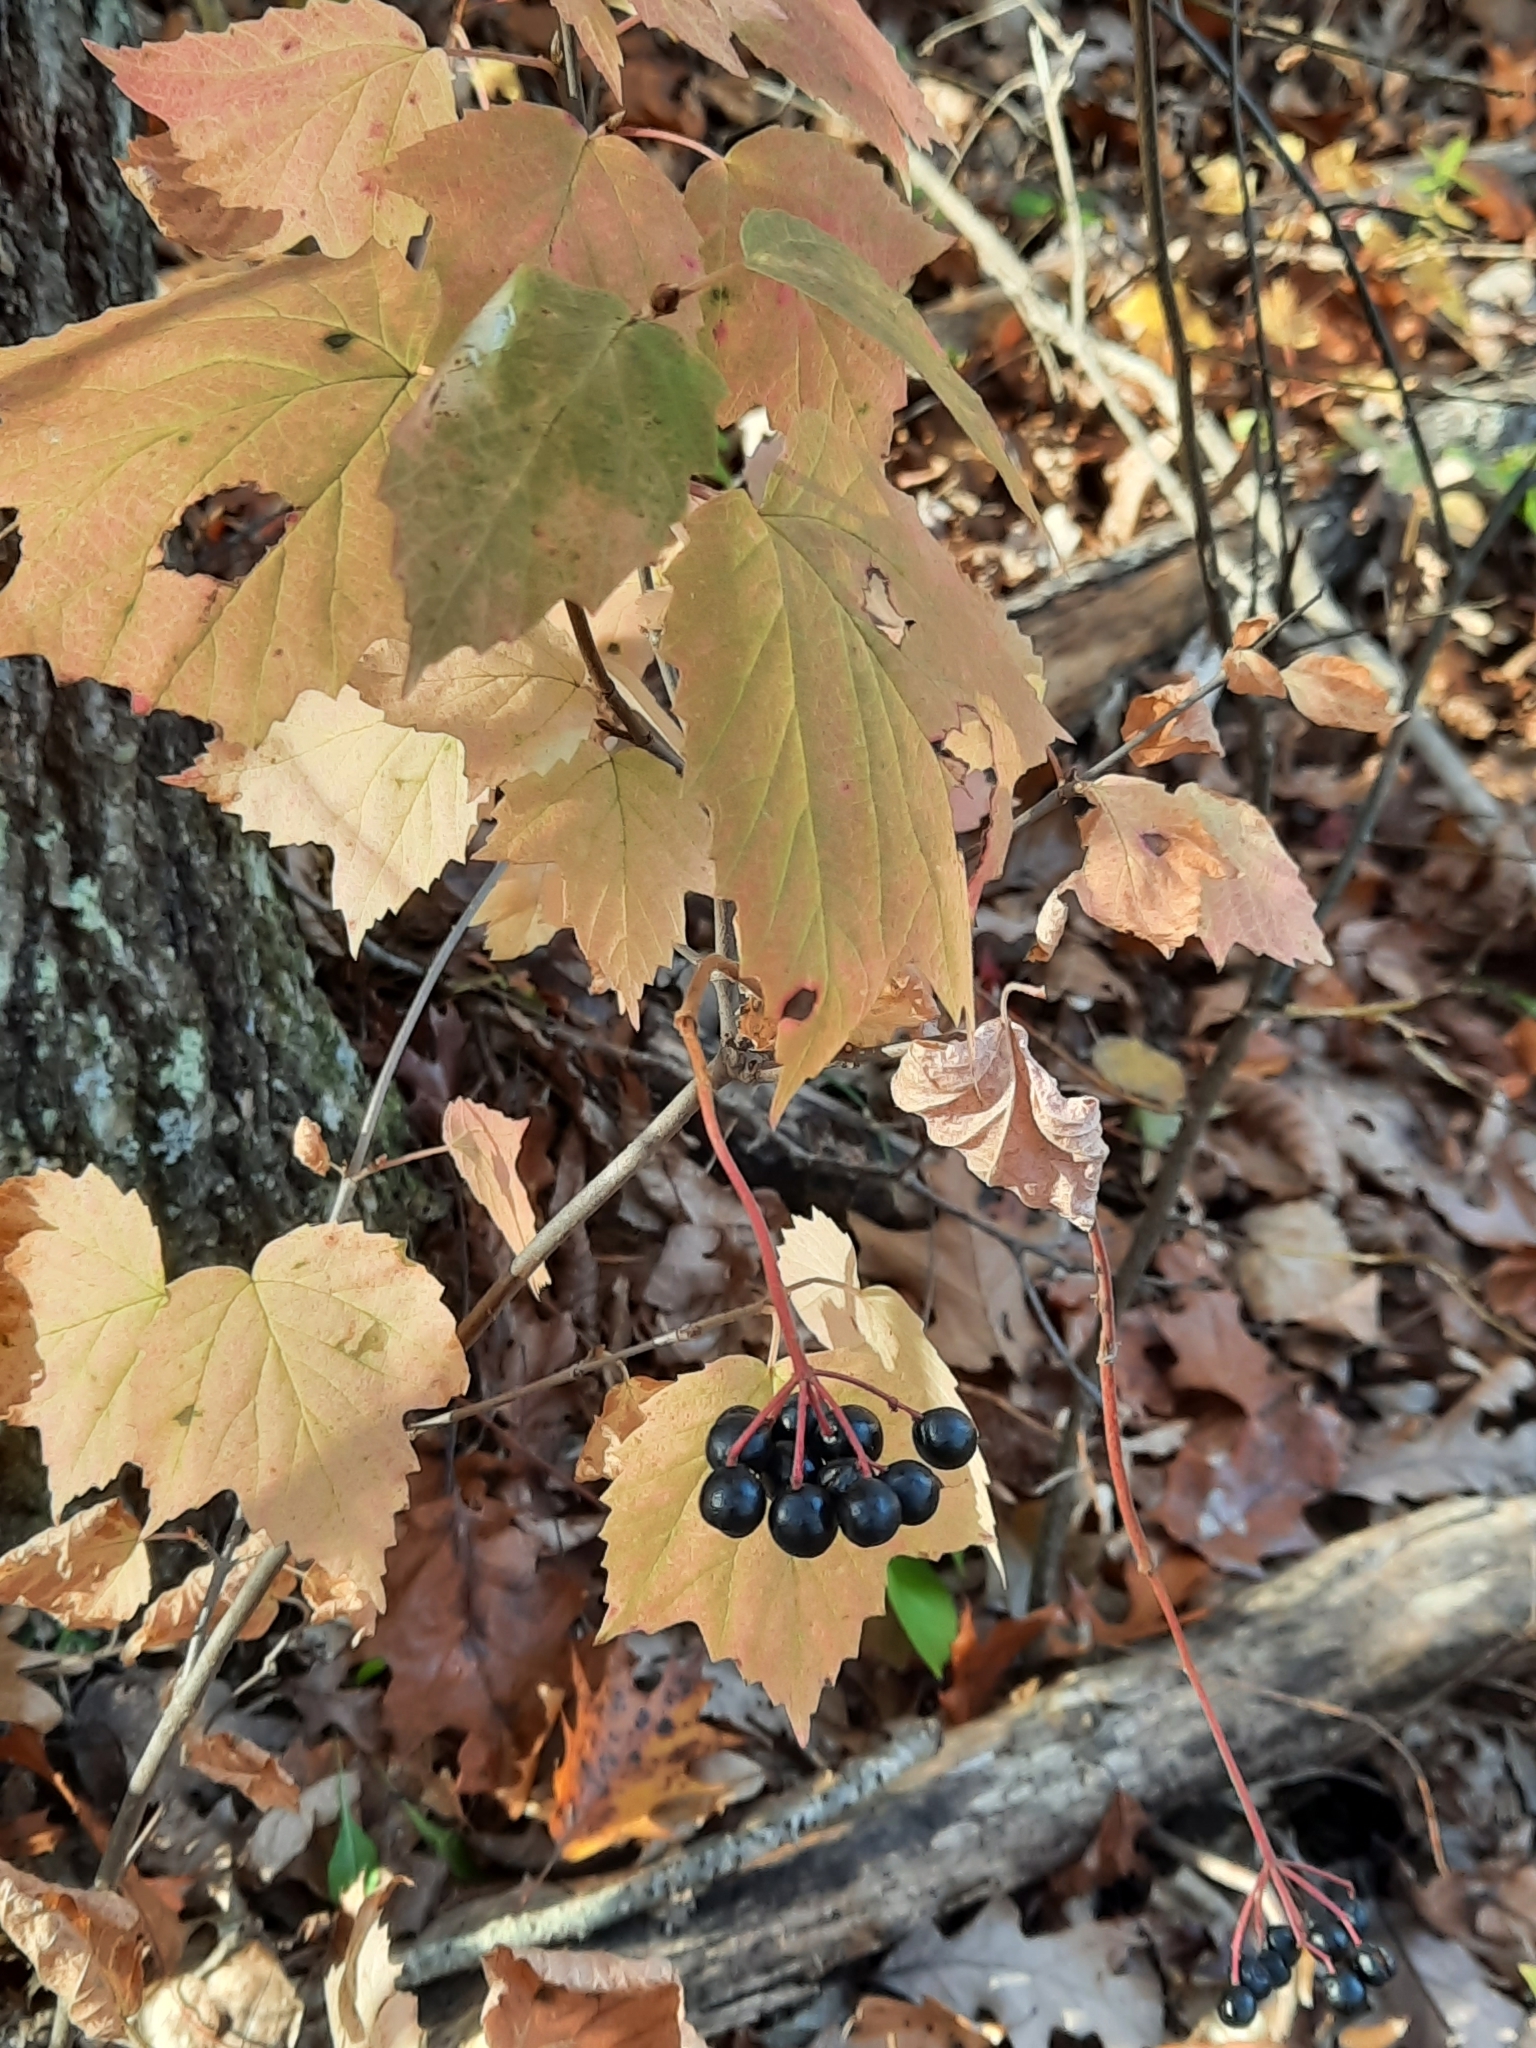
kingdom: Plantae
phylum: Tracheophyta
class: Magnoliopsida
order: Dipsacales
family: Viburnaceae
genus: Viburnum
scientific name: Viburnum acerifolium
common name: Dockmackie
